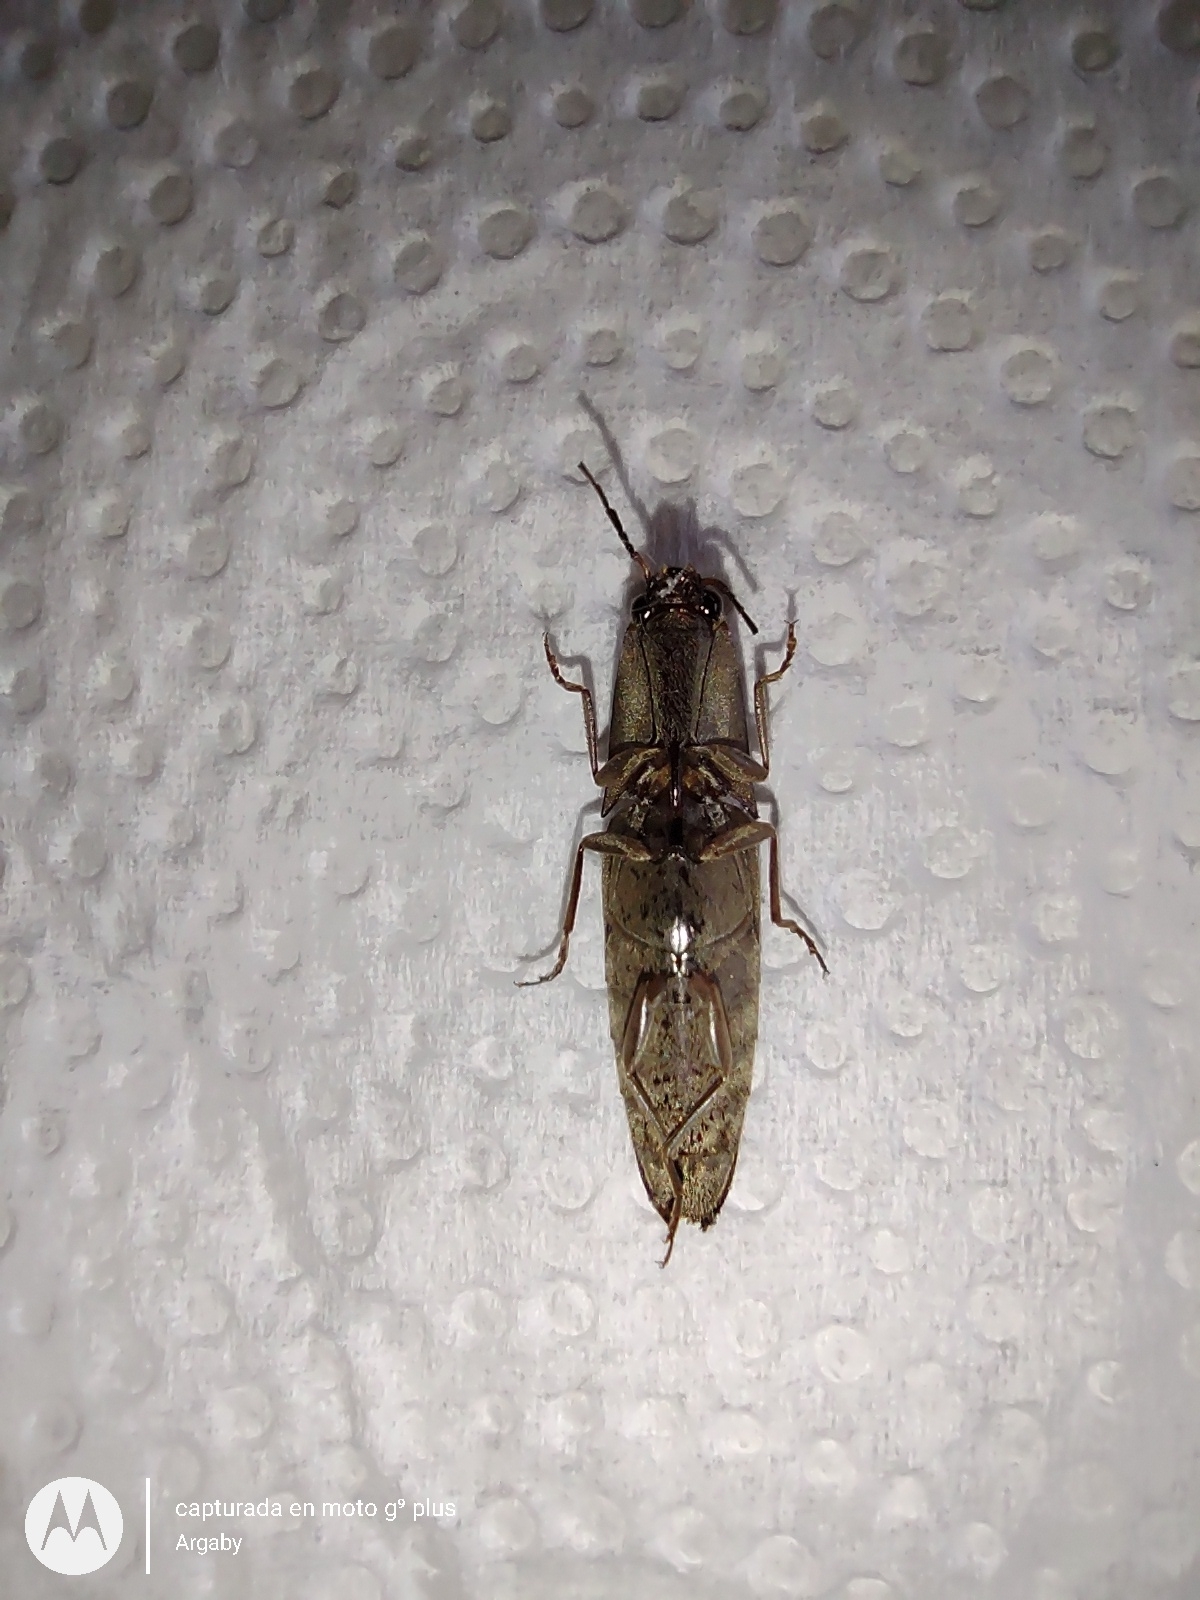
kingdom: Animalia
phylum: Arthropoda
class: Insecta
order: Coleoptera
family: Elateridae
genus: Monocrepidius
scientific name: Monocrepidius
